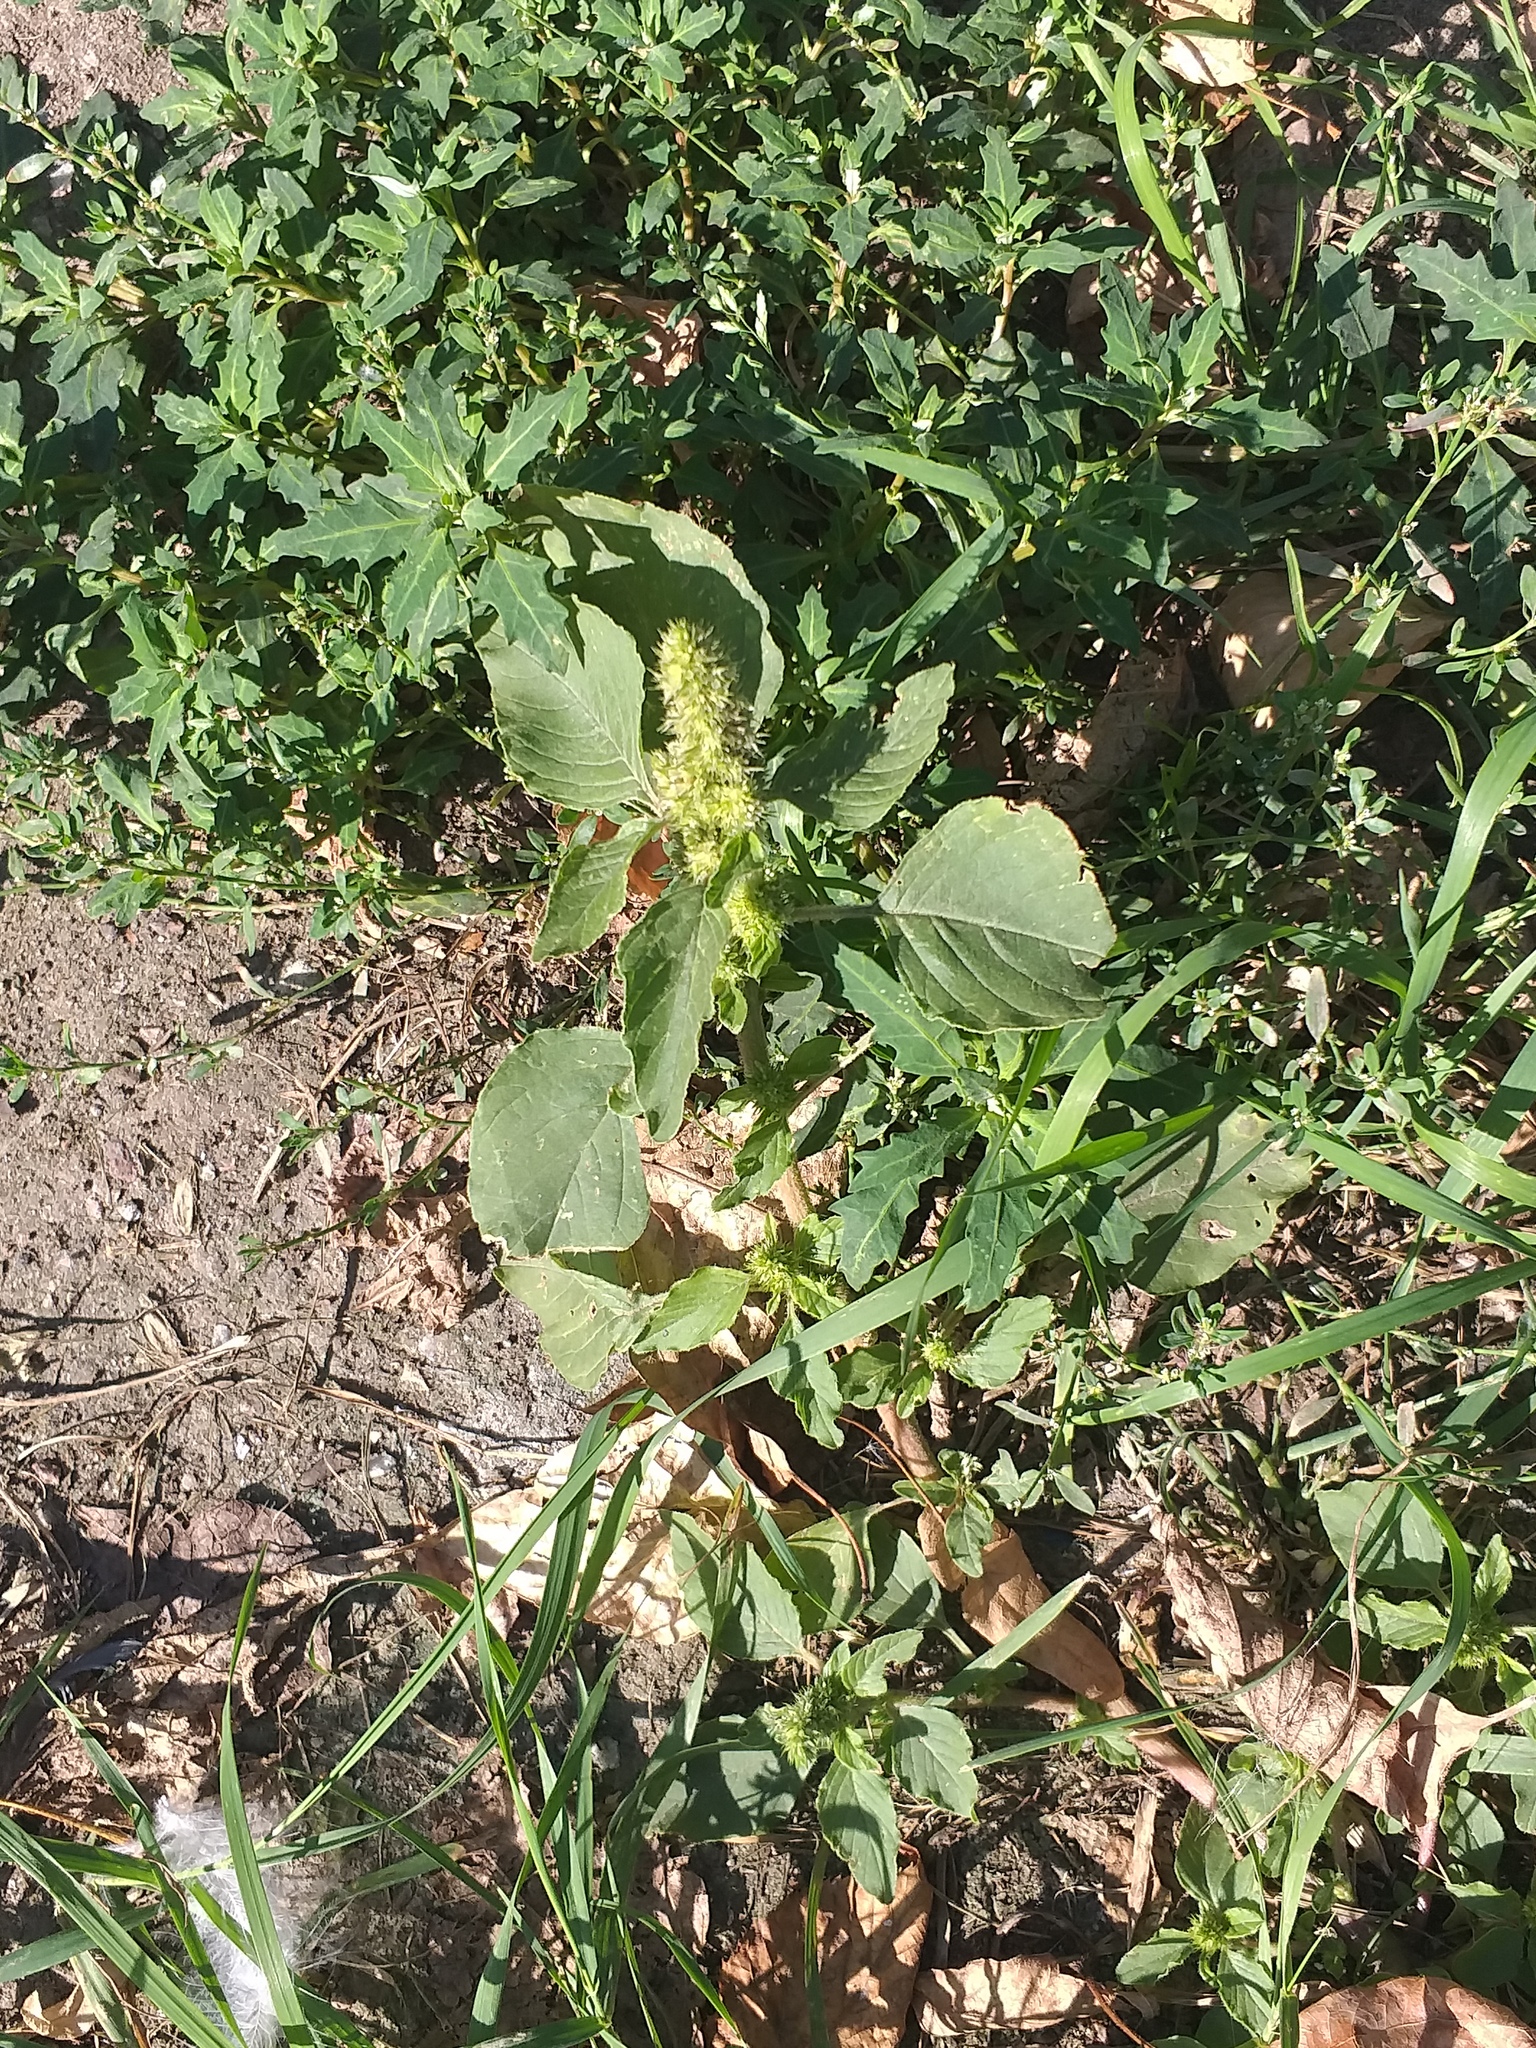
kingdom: Plantae
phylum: Tracheophyta
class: Magnoliopsida
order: Caryophyllales
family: Amaranthaceae
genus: Amaranthus
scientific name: Amaranthus retroflexus
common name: Redroot amaranth
